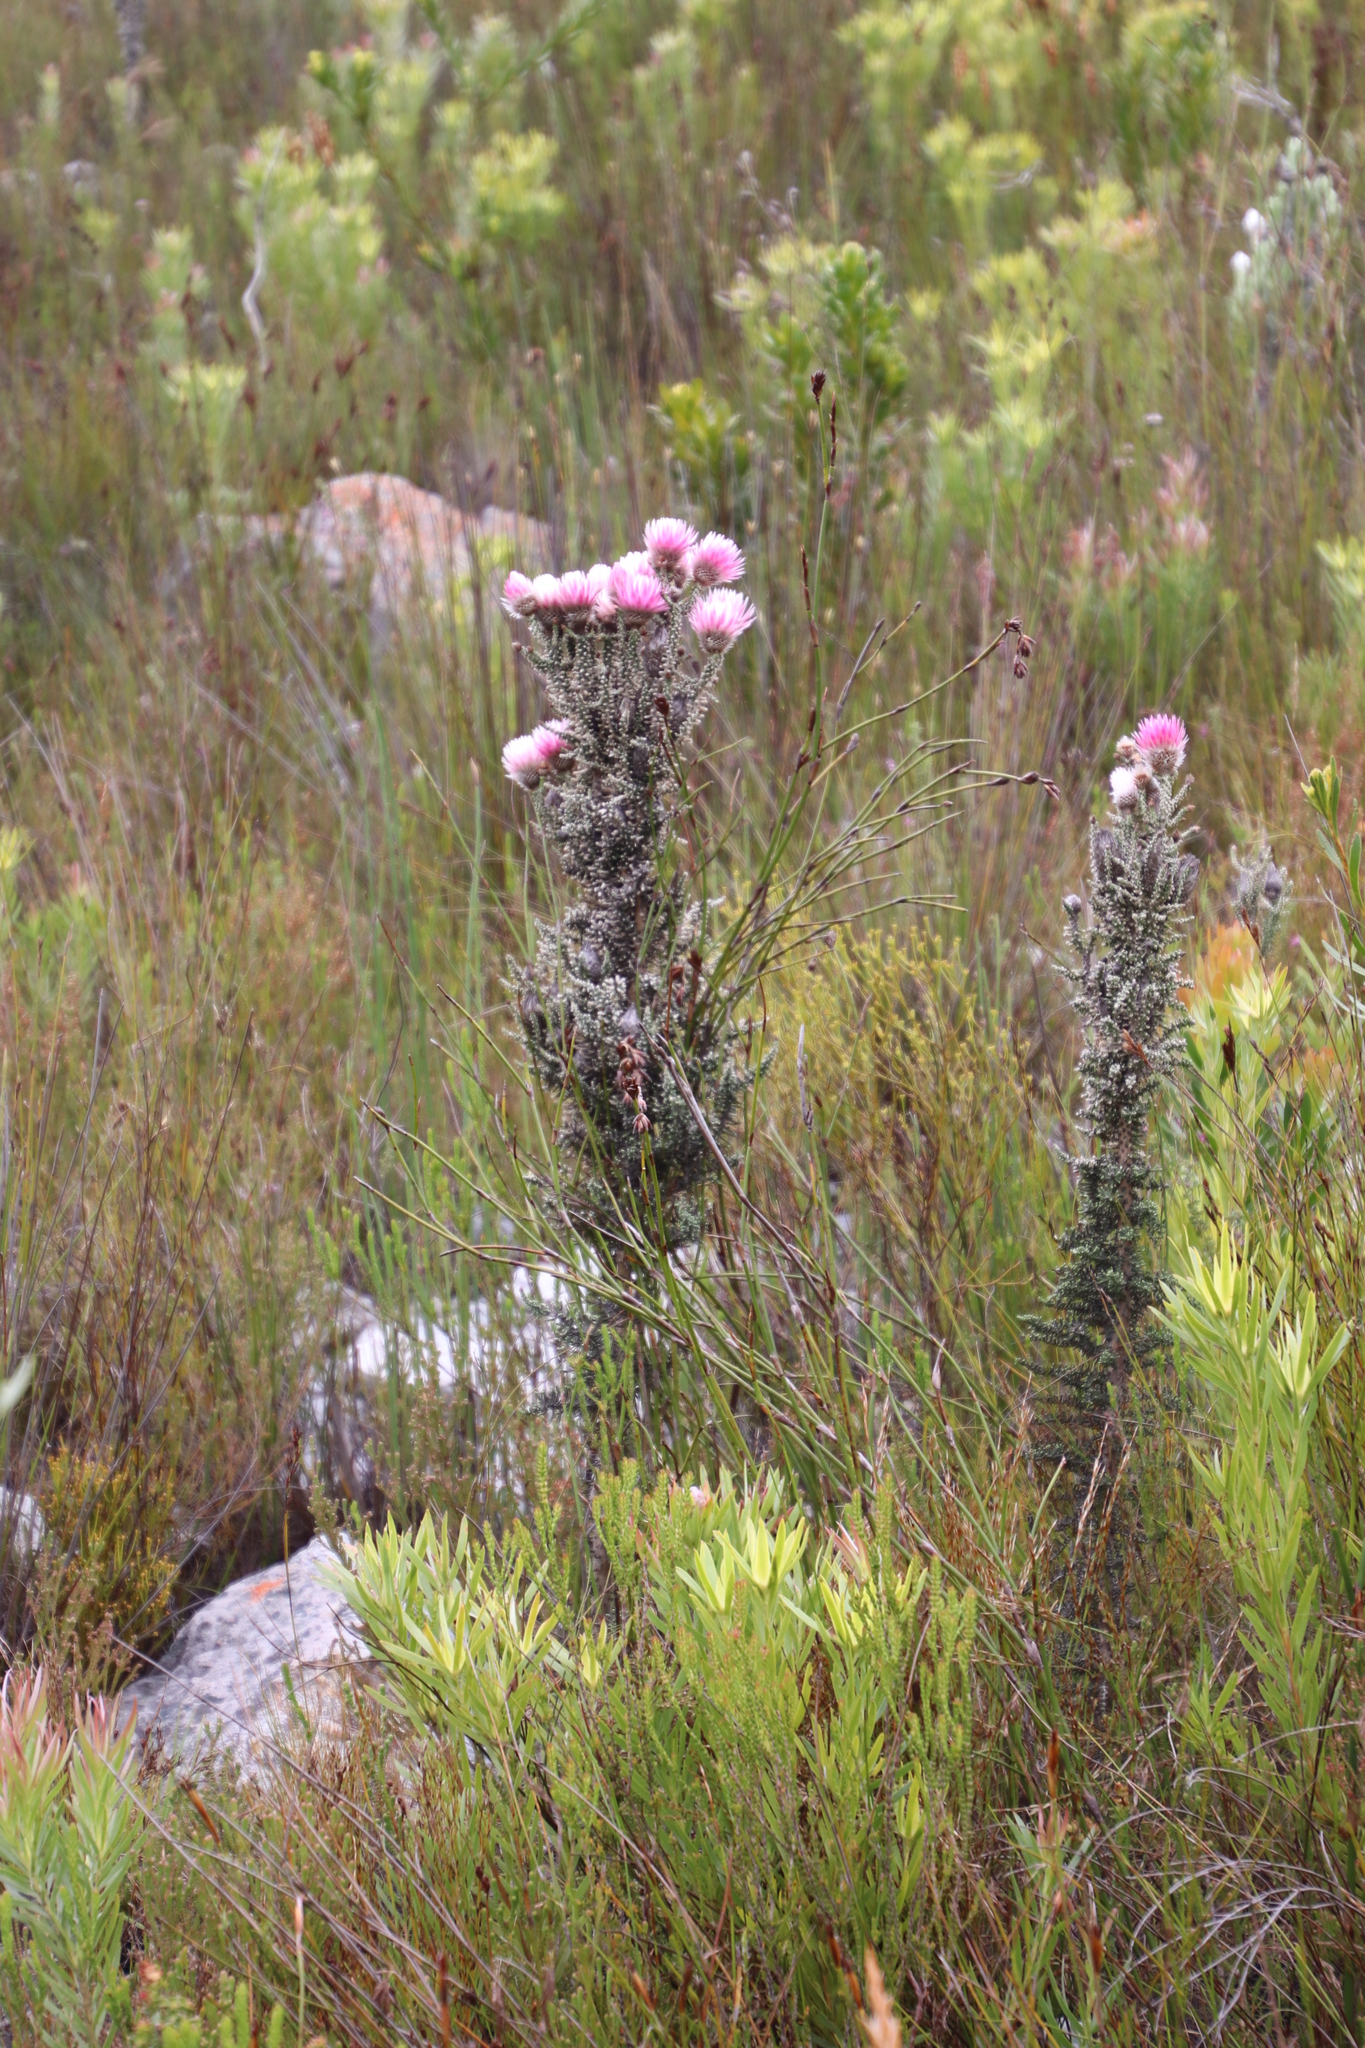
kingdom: Plantae
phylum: Tracheophyta
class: Magnoliopsida
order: Asterales
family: Asteraceae
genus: Phaenocoma
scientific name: Phaenocoma prolifera
